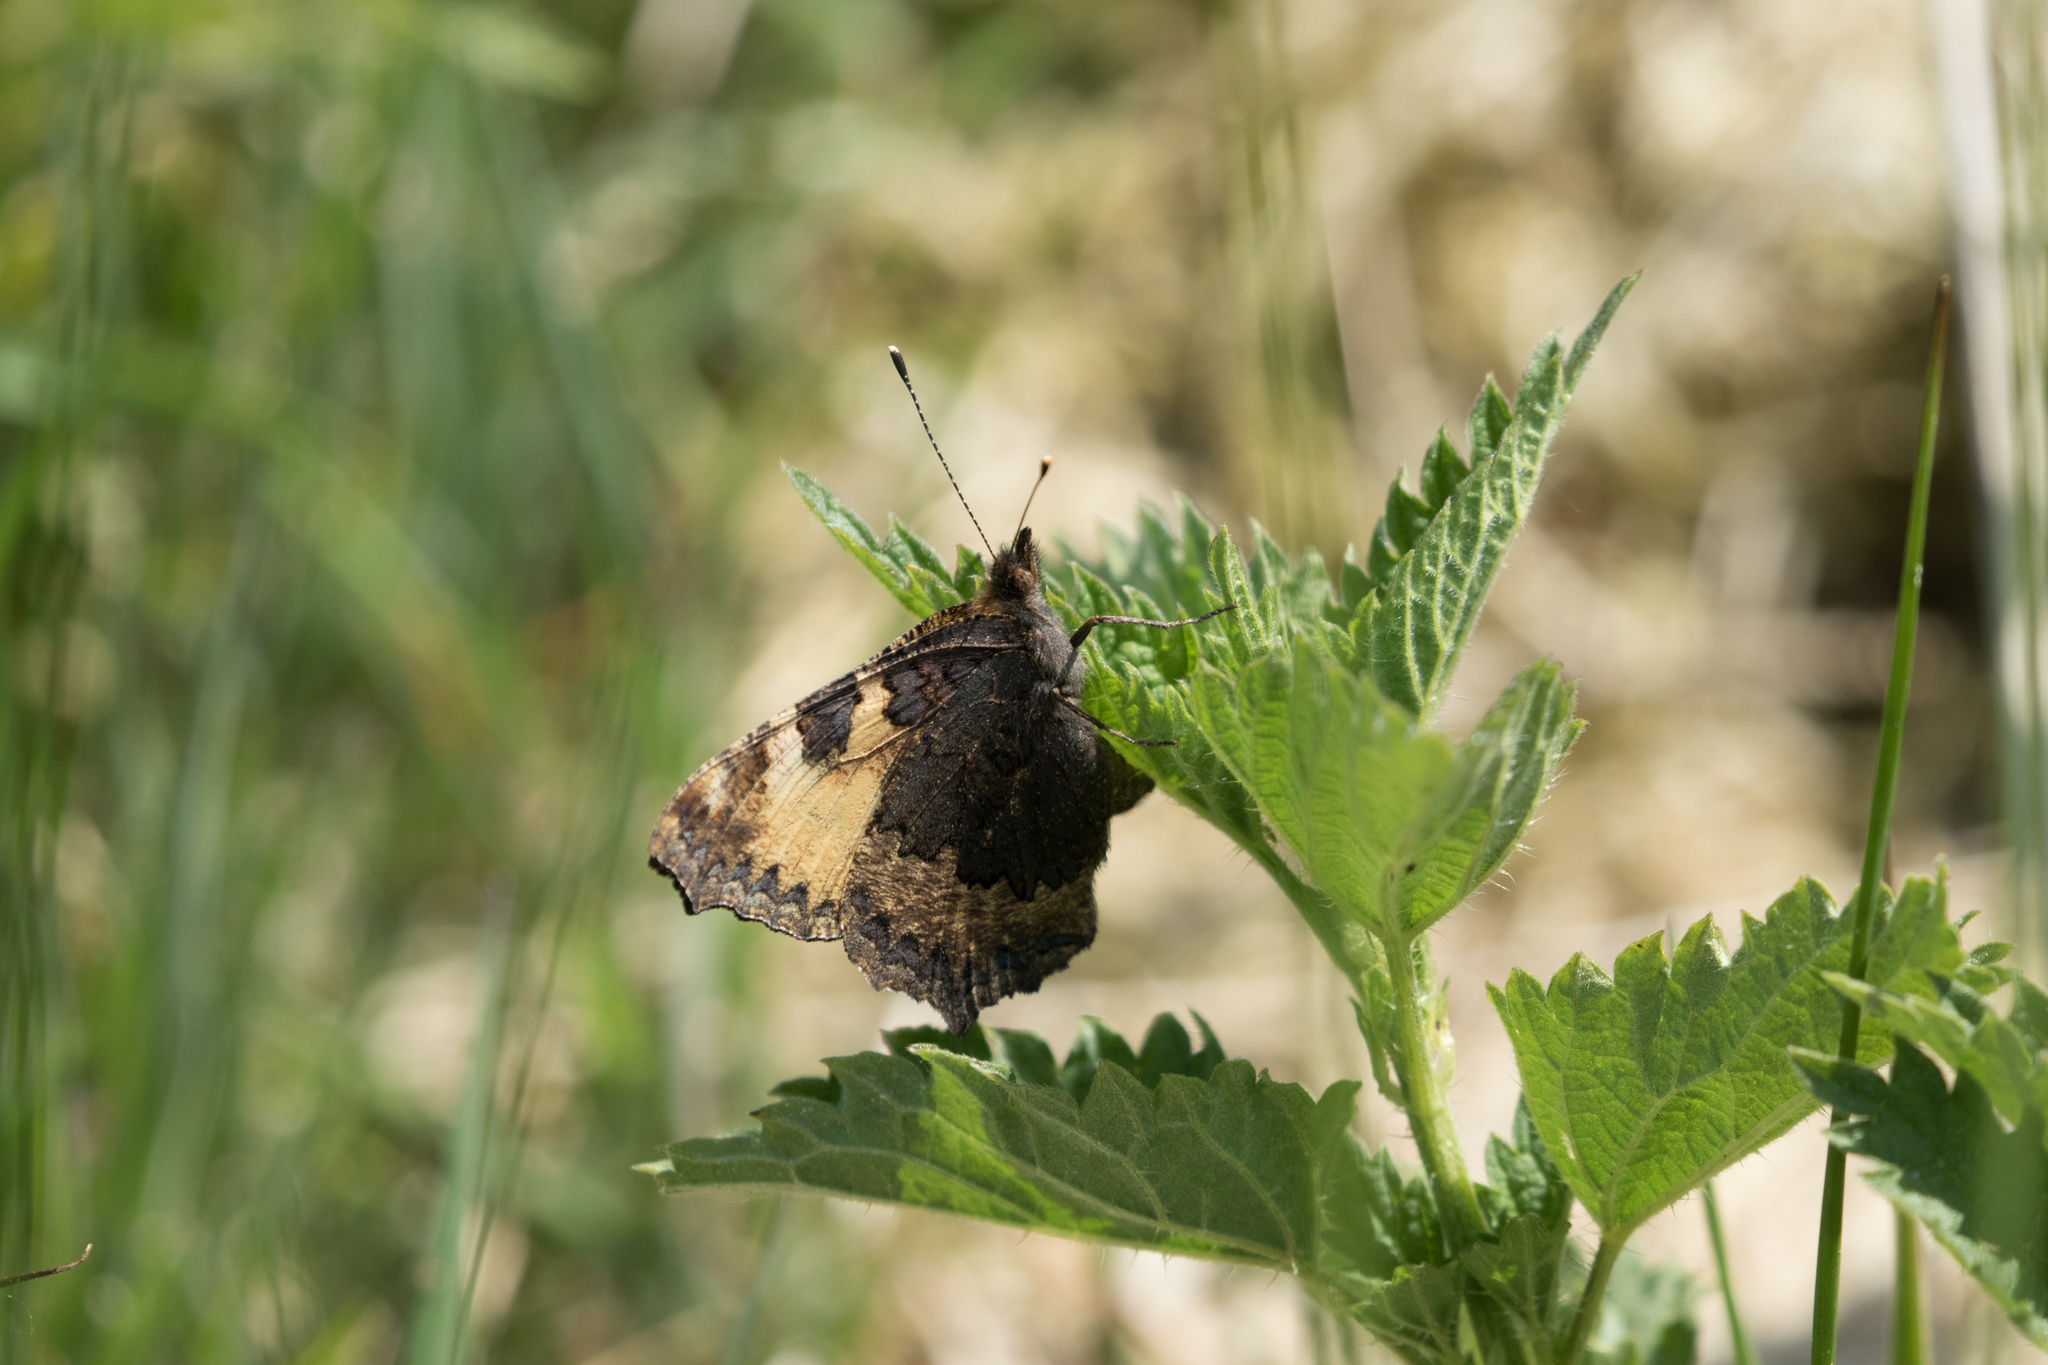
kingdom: Animalia
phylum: Arthropoda
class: Insecta
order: Lepidoptera
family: Nymphalidae
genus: Aglais
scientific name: Aglais urticae
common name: Small tortoiseshell
